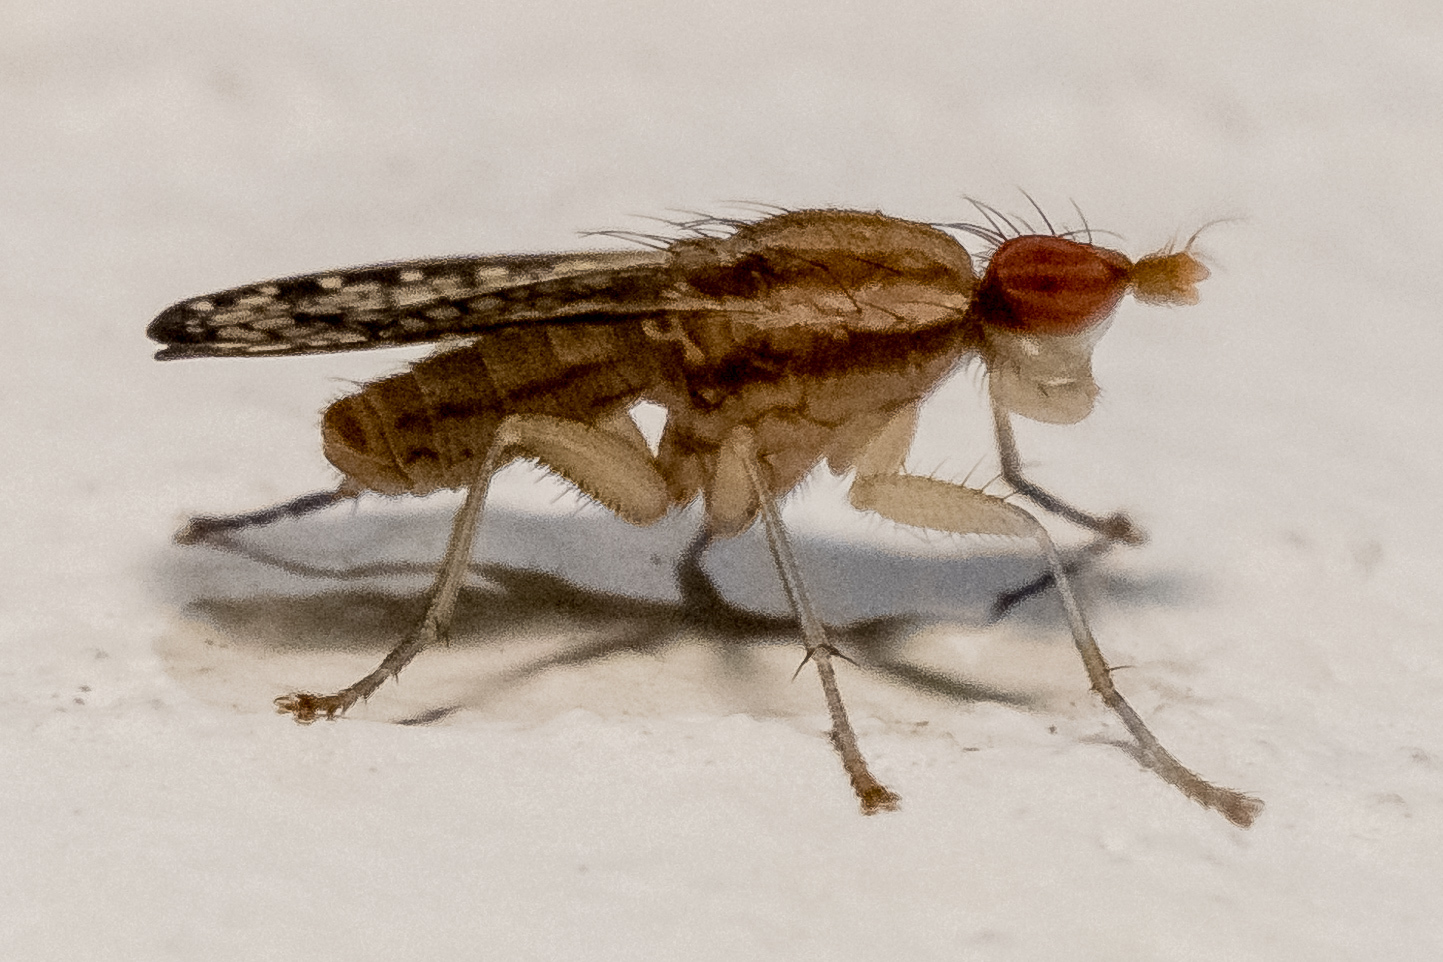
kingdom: Animalia
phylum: Arthropoda
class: Insecta
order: Diptera
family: Sciomyzidae
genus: Trypetoptera
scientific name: Trypetoptera canadensis
